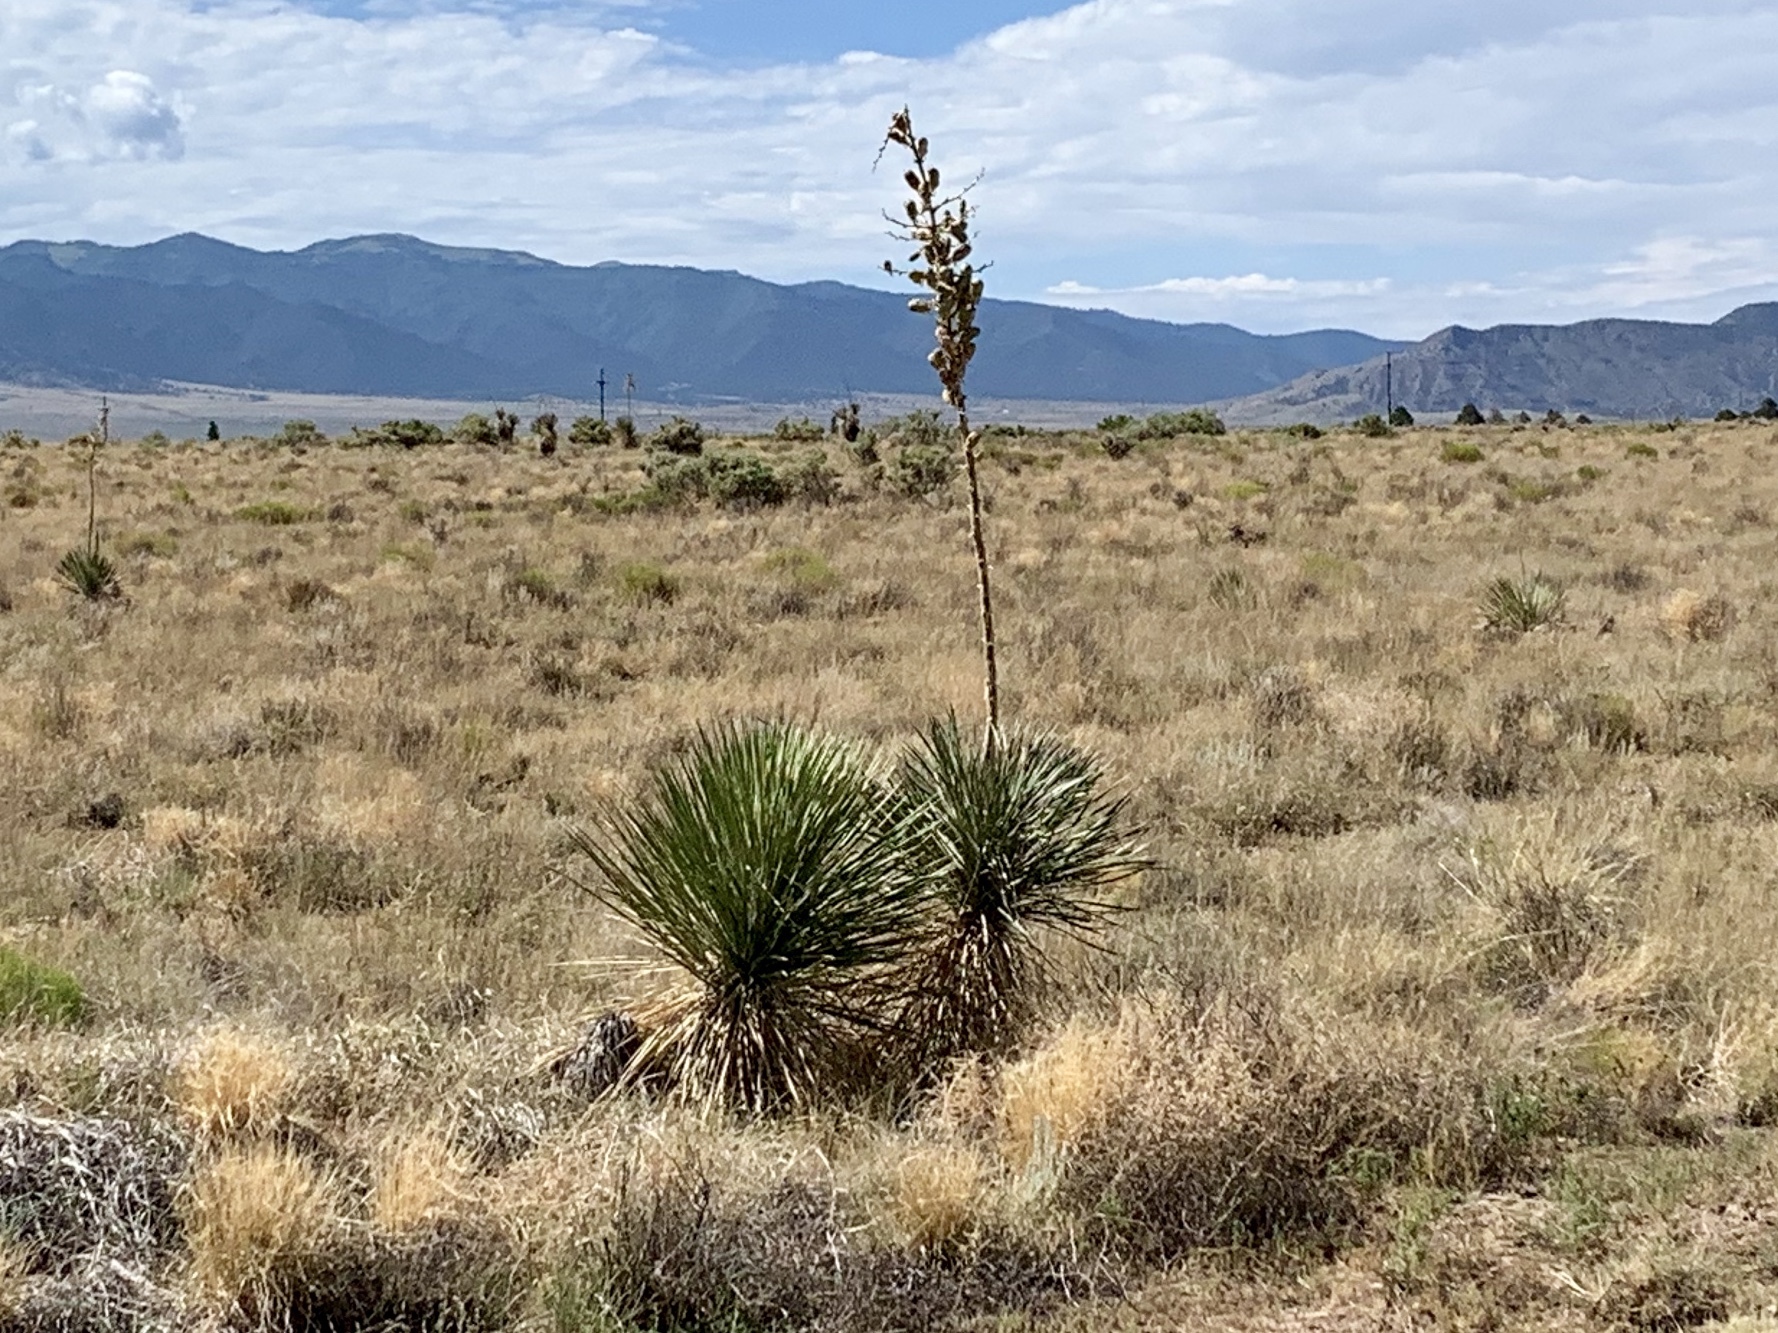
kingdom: Plantae
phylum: Tracheophyta
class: Liliopsida
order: Asparagales
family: Asparagaceae
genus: Yucca
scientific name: Yucca elata
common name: Palmella
